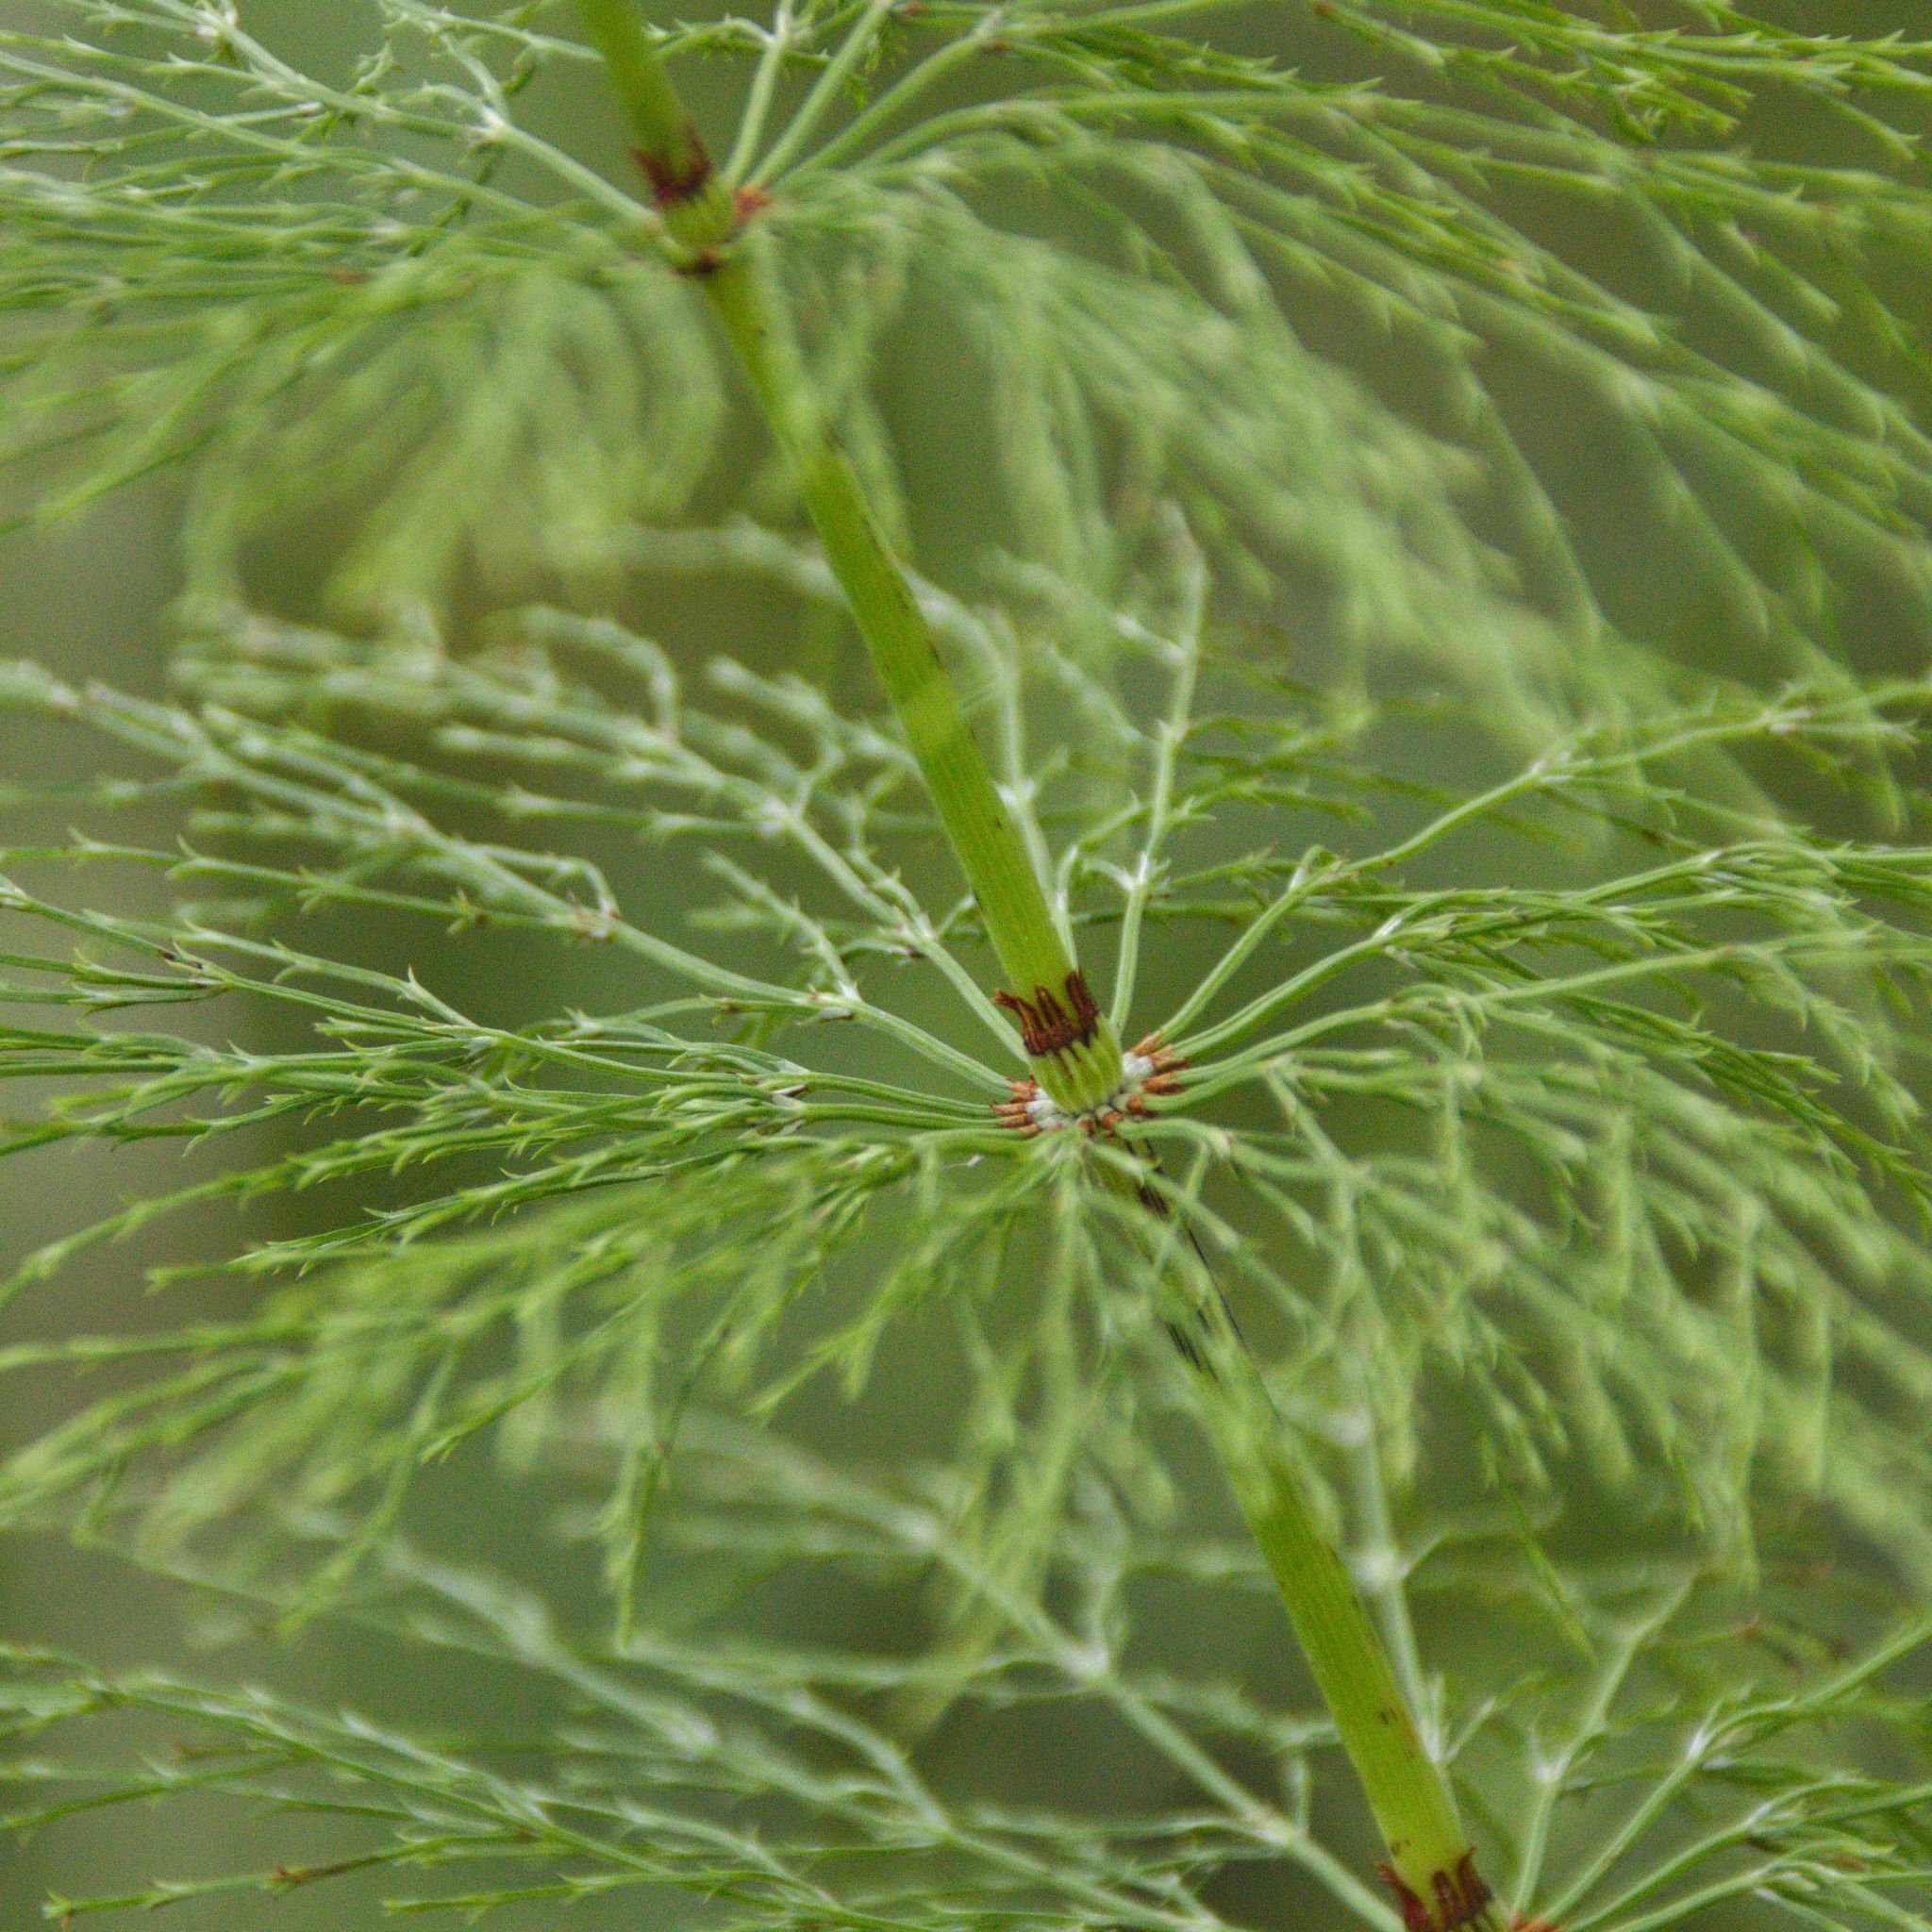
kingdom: Plantae
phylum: Tracheophyta
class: Polypodiopsida
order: Equisetales
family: Equisetaceae
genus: Equisetum
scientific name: Equisetum sylvaticum
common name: Wood horsetail
